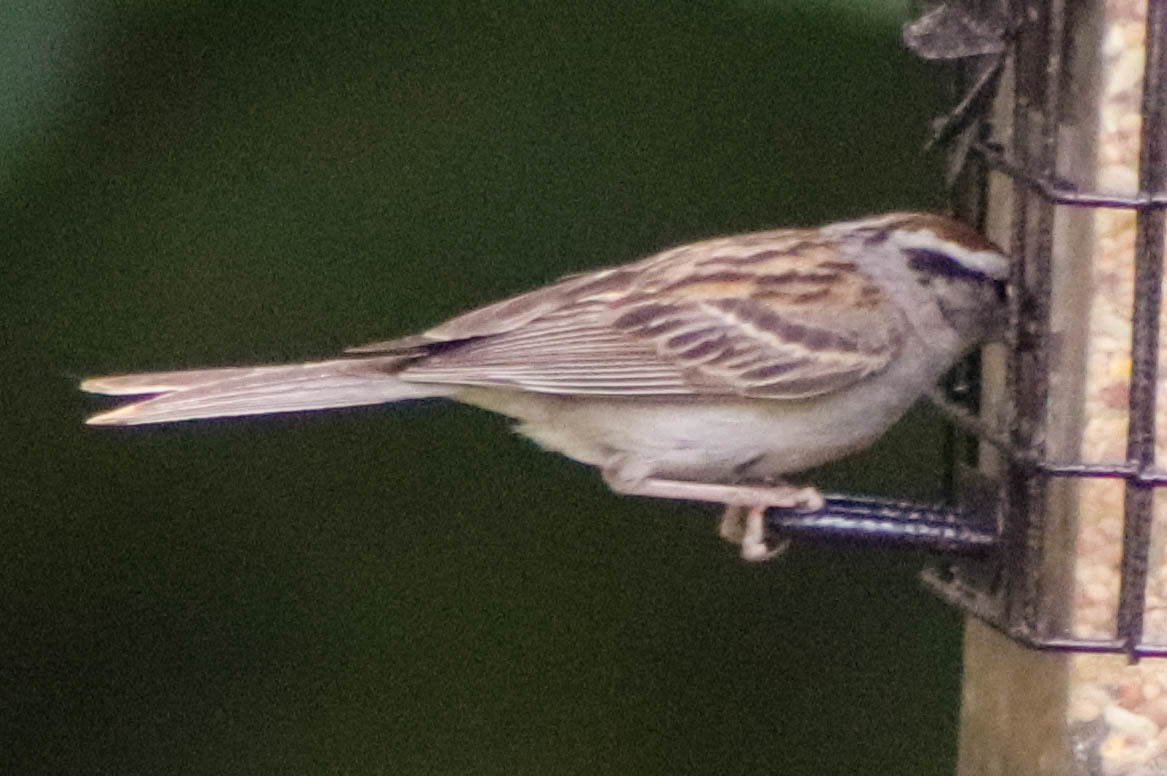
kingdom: Animalia
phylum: Chordata
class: Aves
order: Passeriformes
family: Passerellidae
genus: Spizella
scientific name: Spizella passerina
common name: Chipping sparrow
